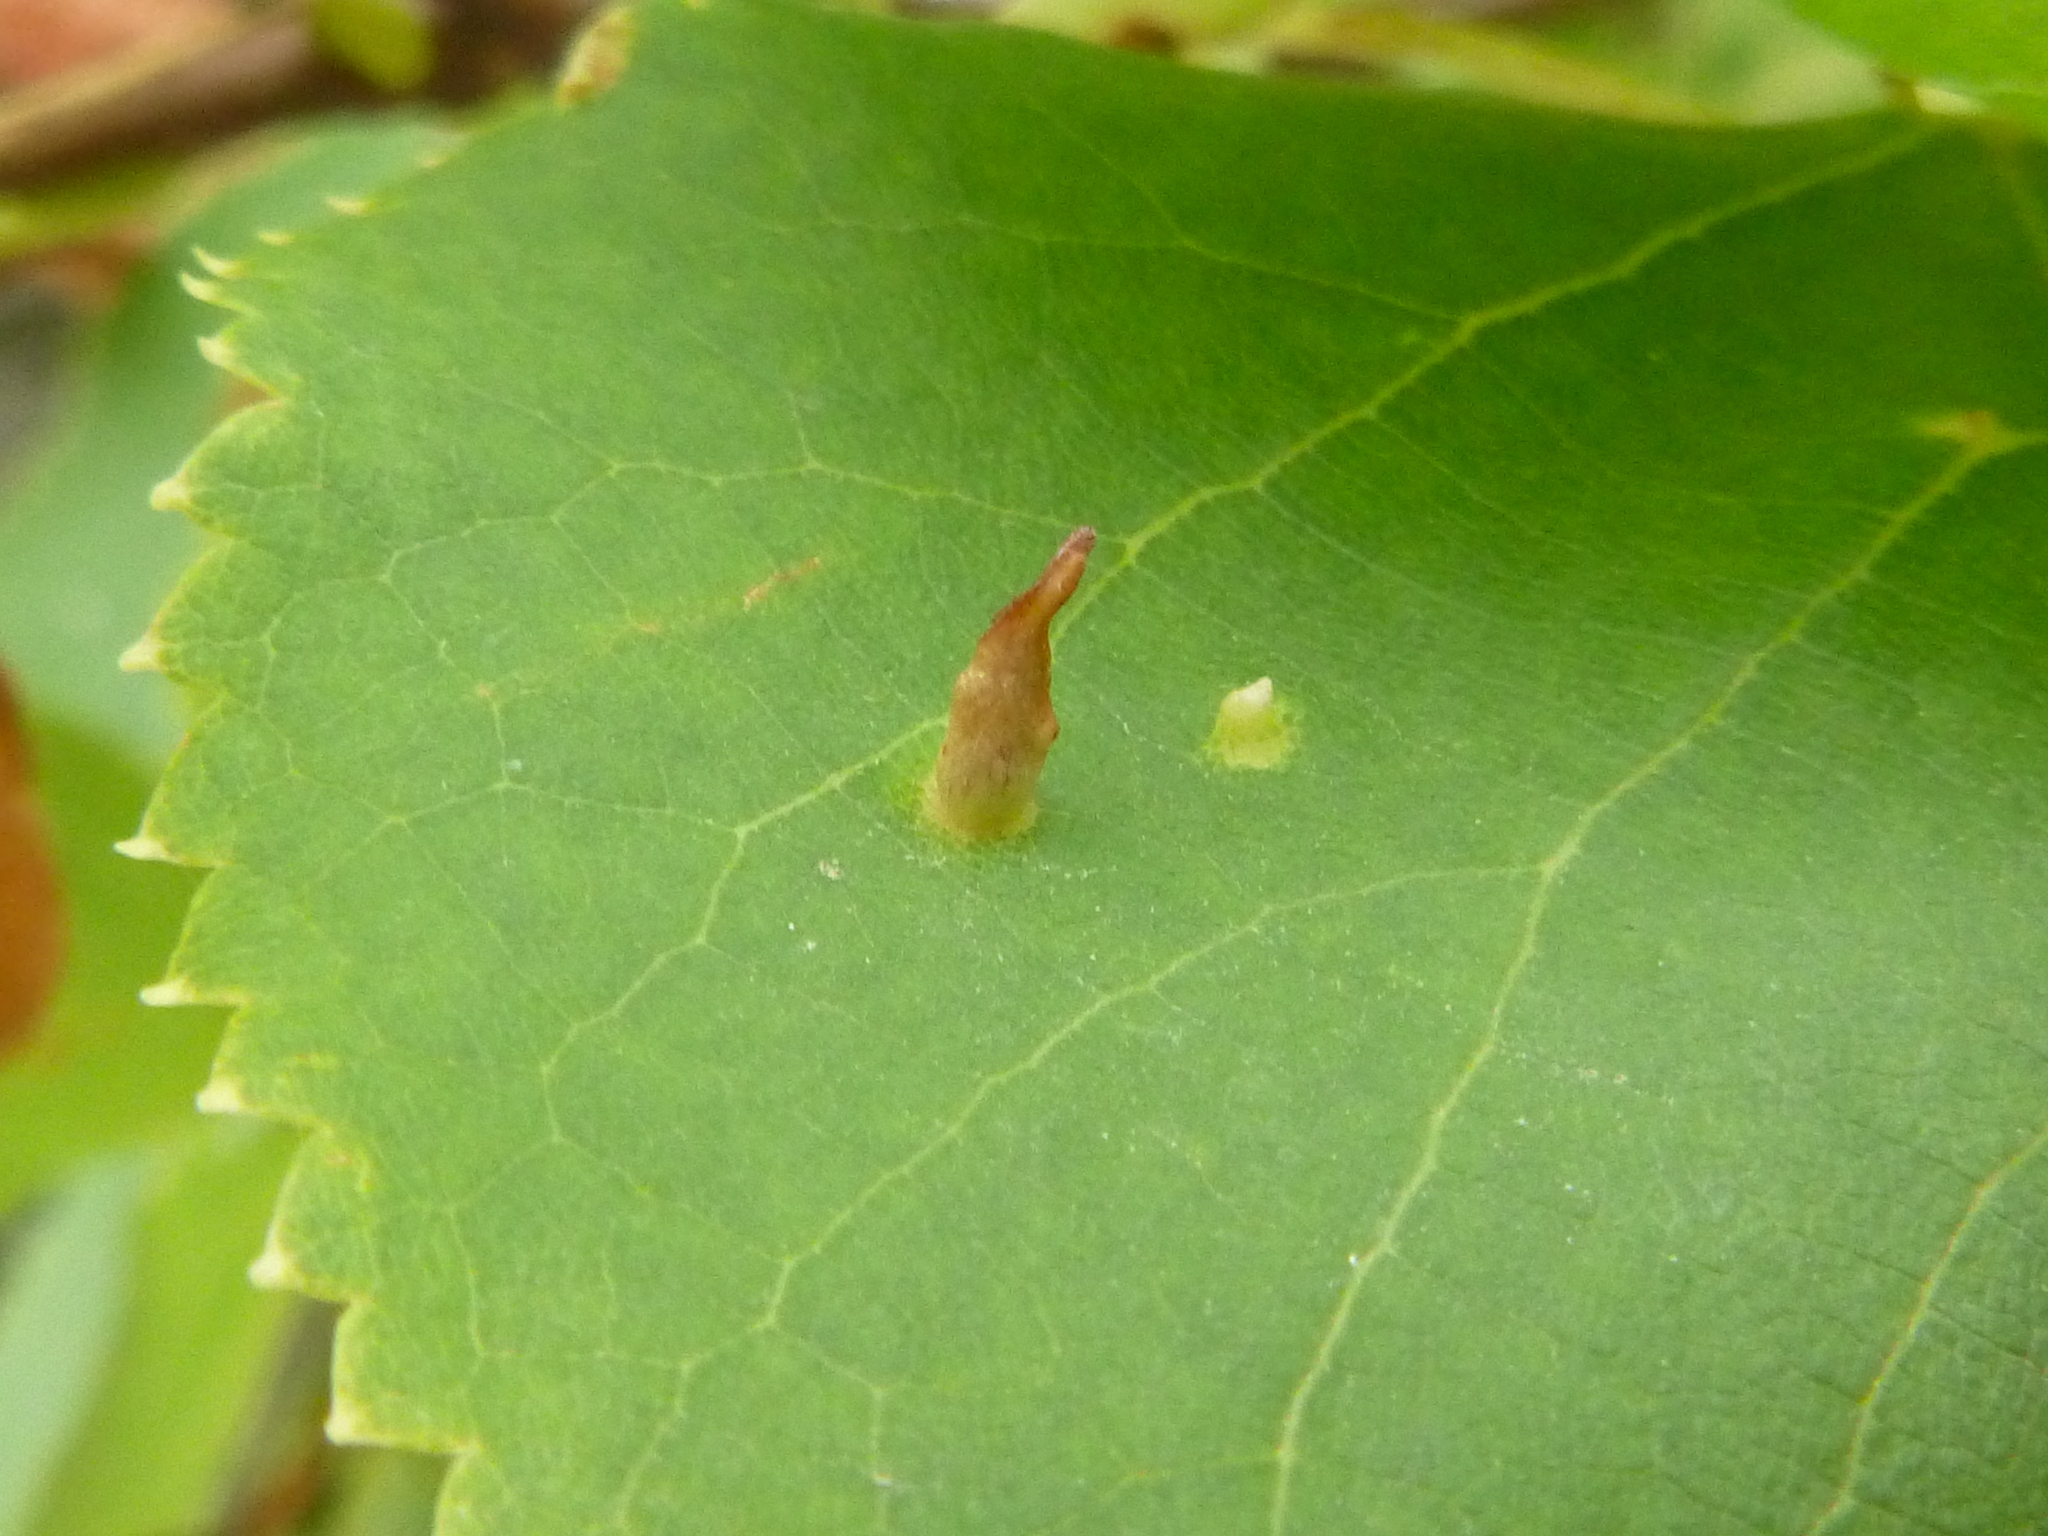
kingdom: Animalia
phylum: Arthropoda
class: Arachnida
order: Trombidiformes
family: Eriophyidae
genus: Eriophyes
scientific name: Eriophyes tiliae
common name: Red nail gall mite
